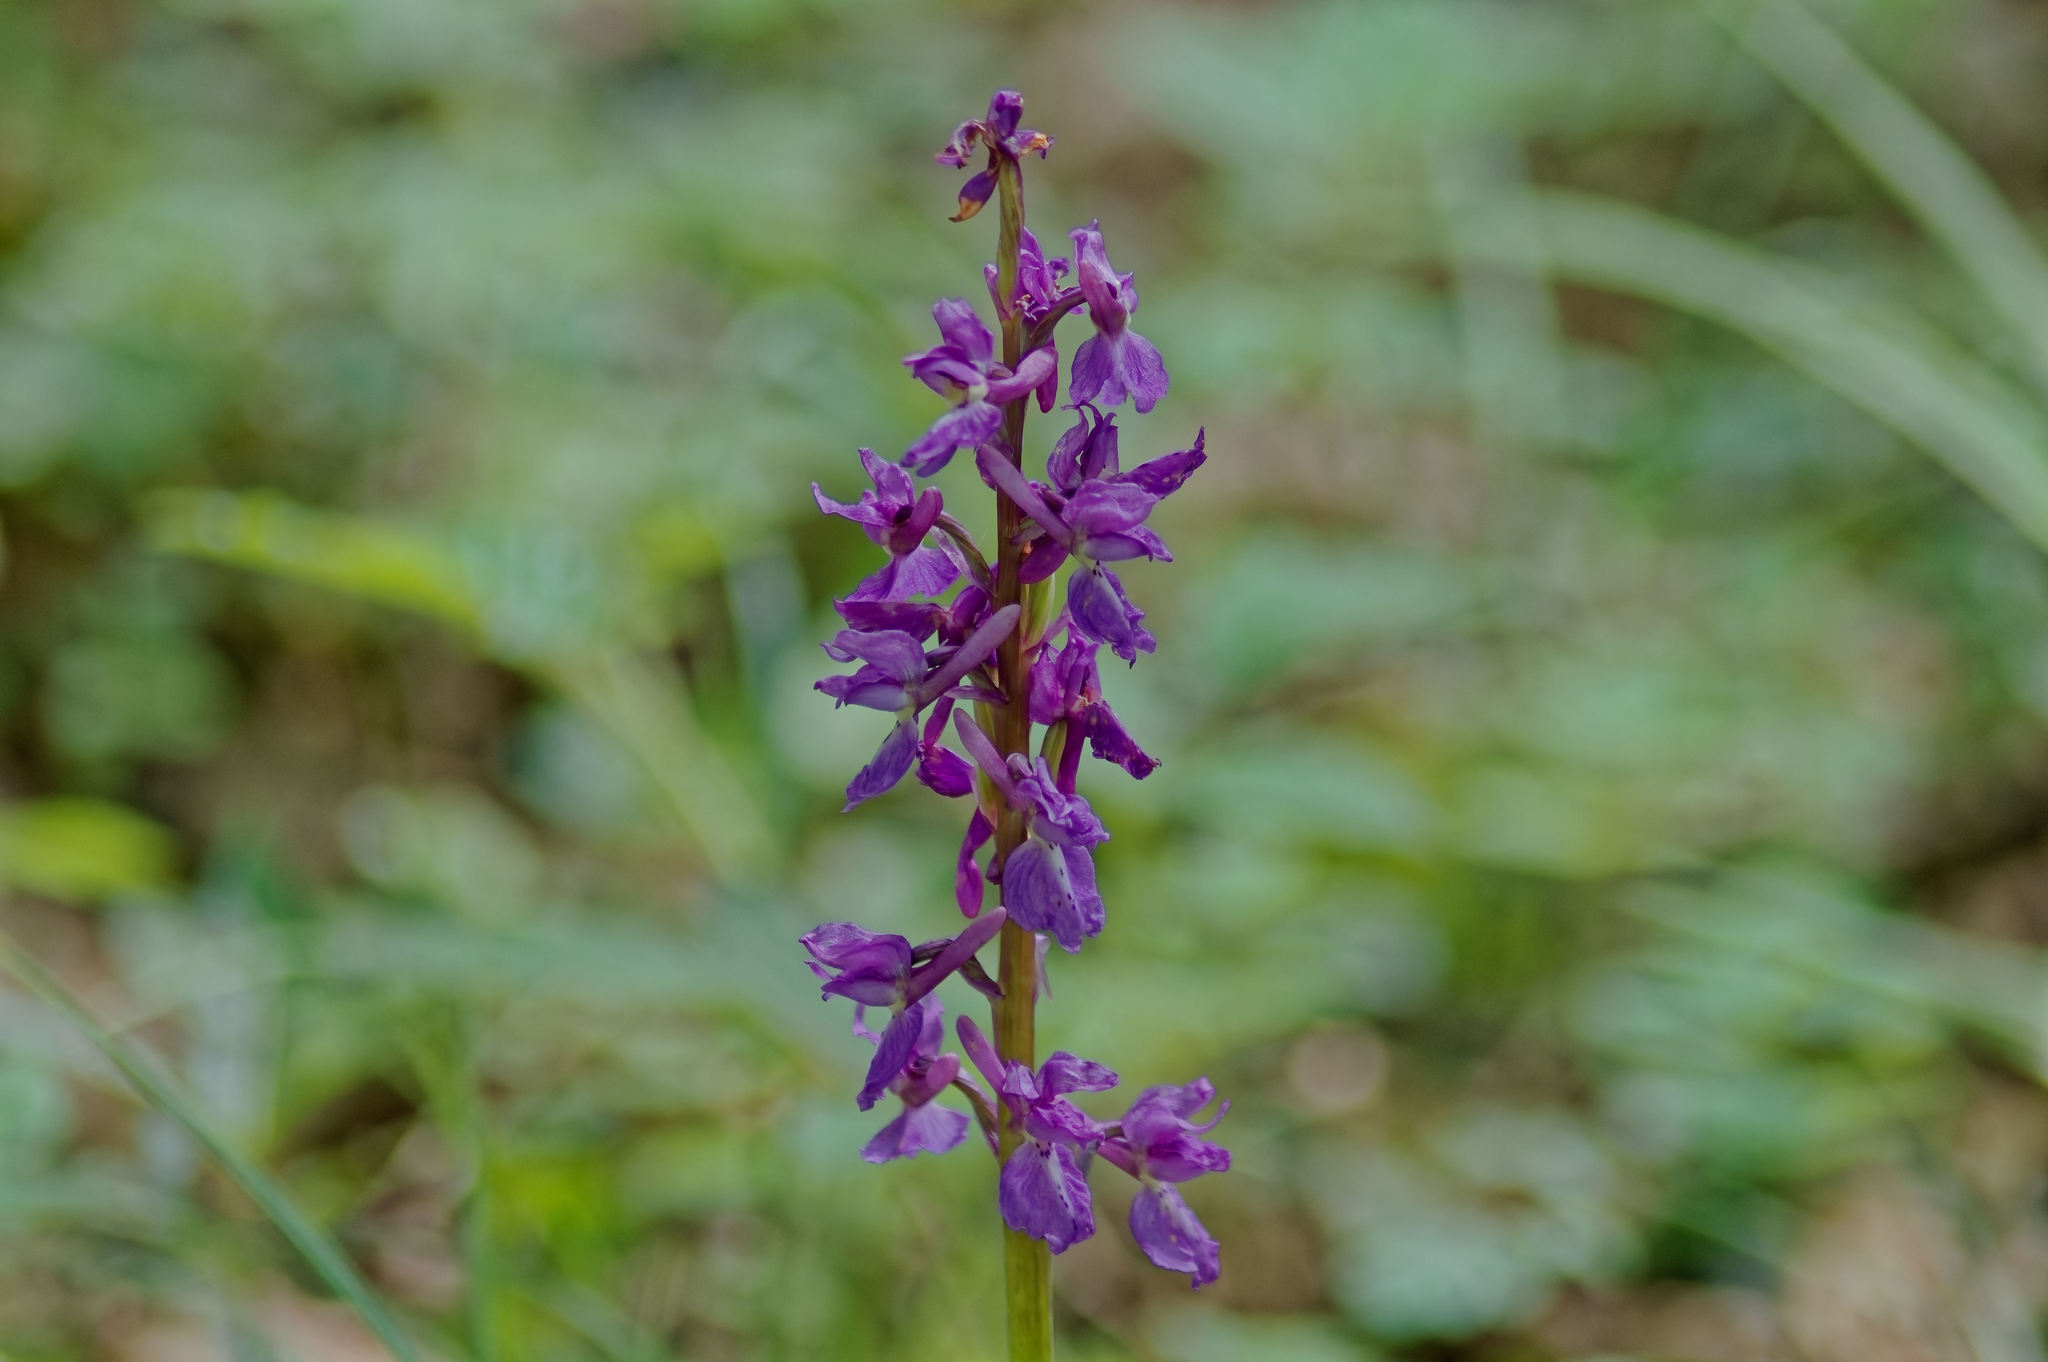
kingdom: Plantae
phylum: Tracheophyta
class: Liliopsida
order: Asparagales
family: Orchidaceae
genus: Orchis
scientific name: Orchis mascula
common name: Early-purple orchid
